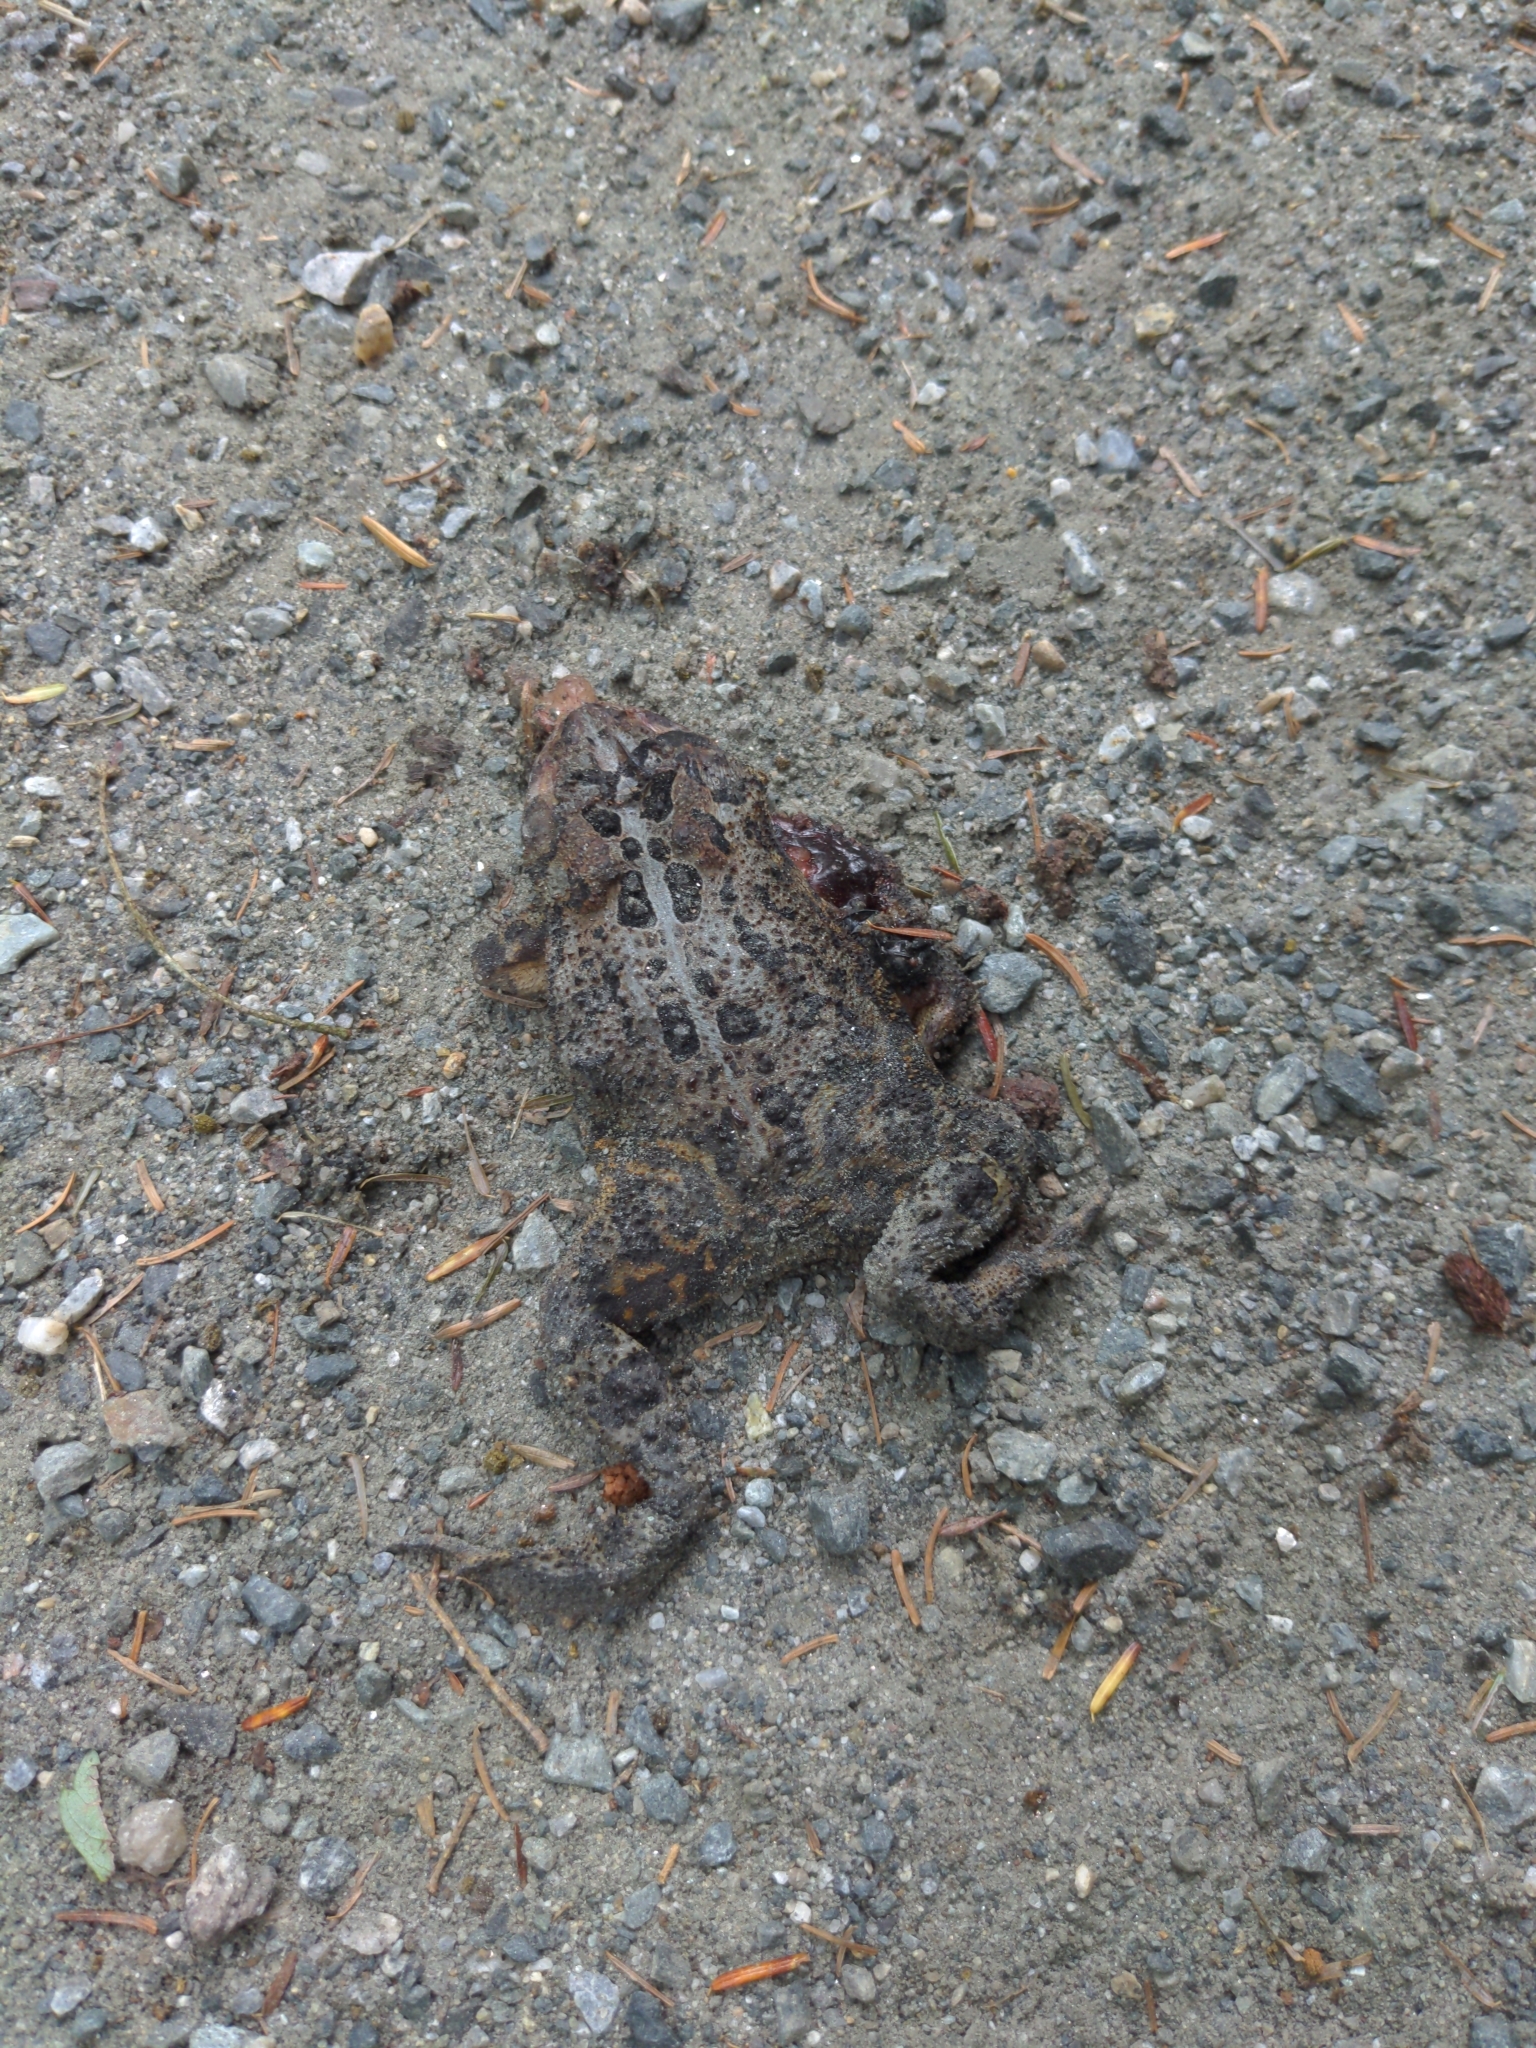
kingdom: Animalia
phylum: Chordata
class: Amphibia
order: Anura
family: Bufonidae
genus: Anaxyrus
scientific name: Anaxyrus americanus
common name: American toad
